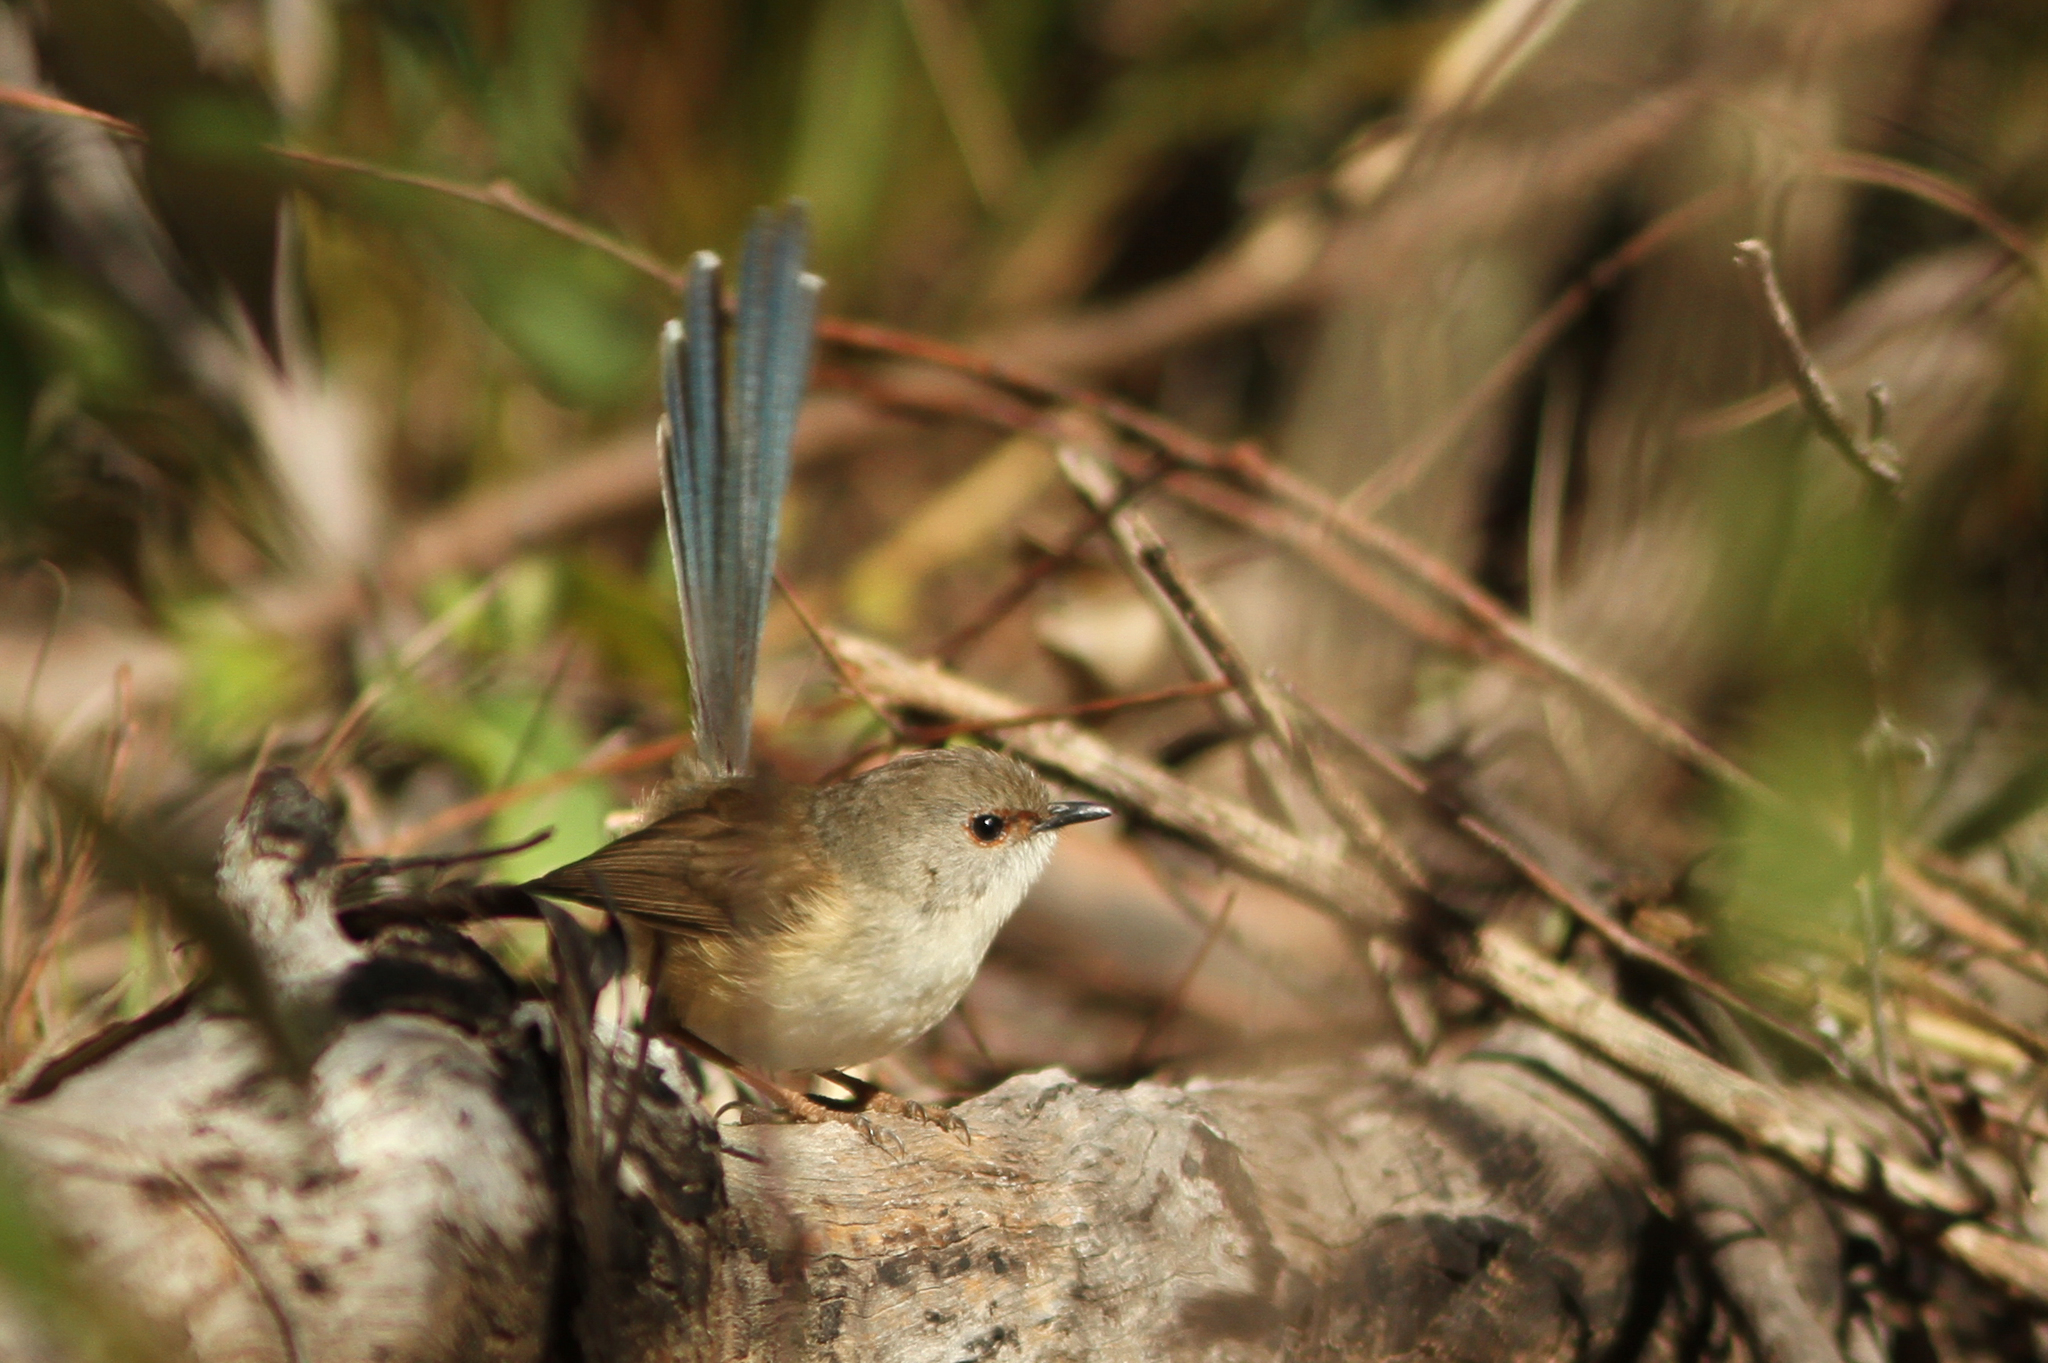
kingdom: Animalia
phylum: Chordata
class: Aves
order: Passeriformes
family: Maluridae
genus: Malurus
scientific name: Malurus assimilis
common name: Purple-backed fairywren
